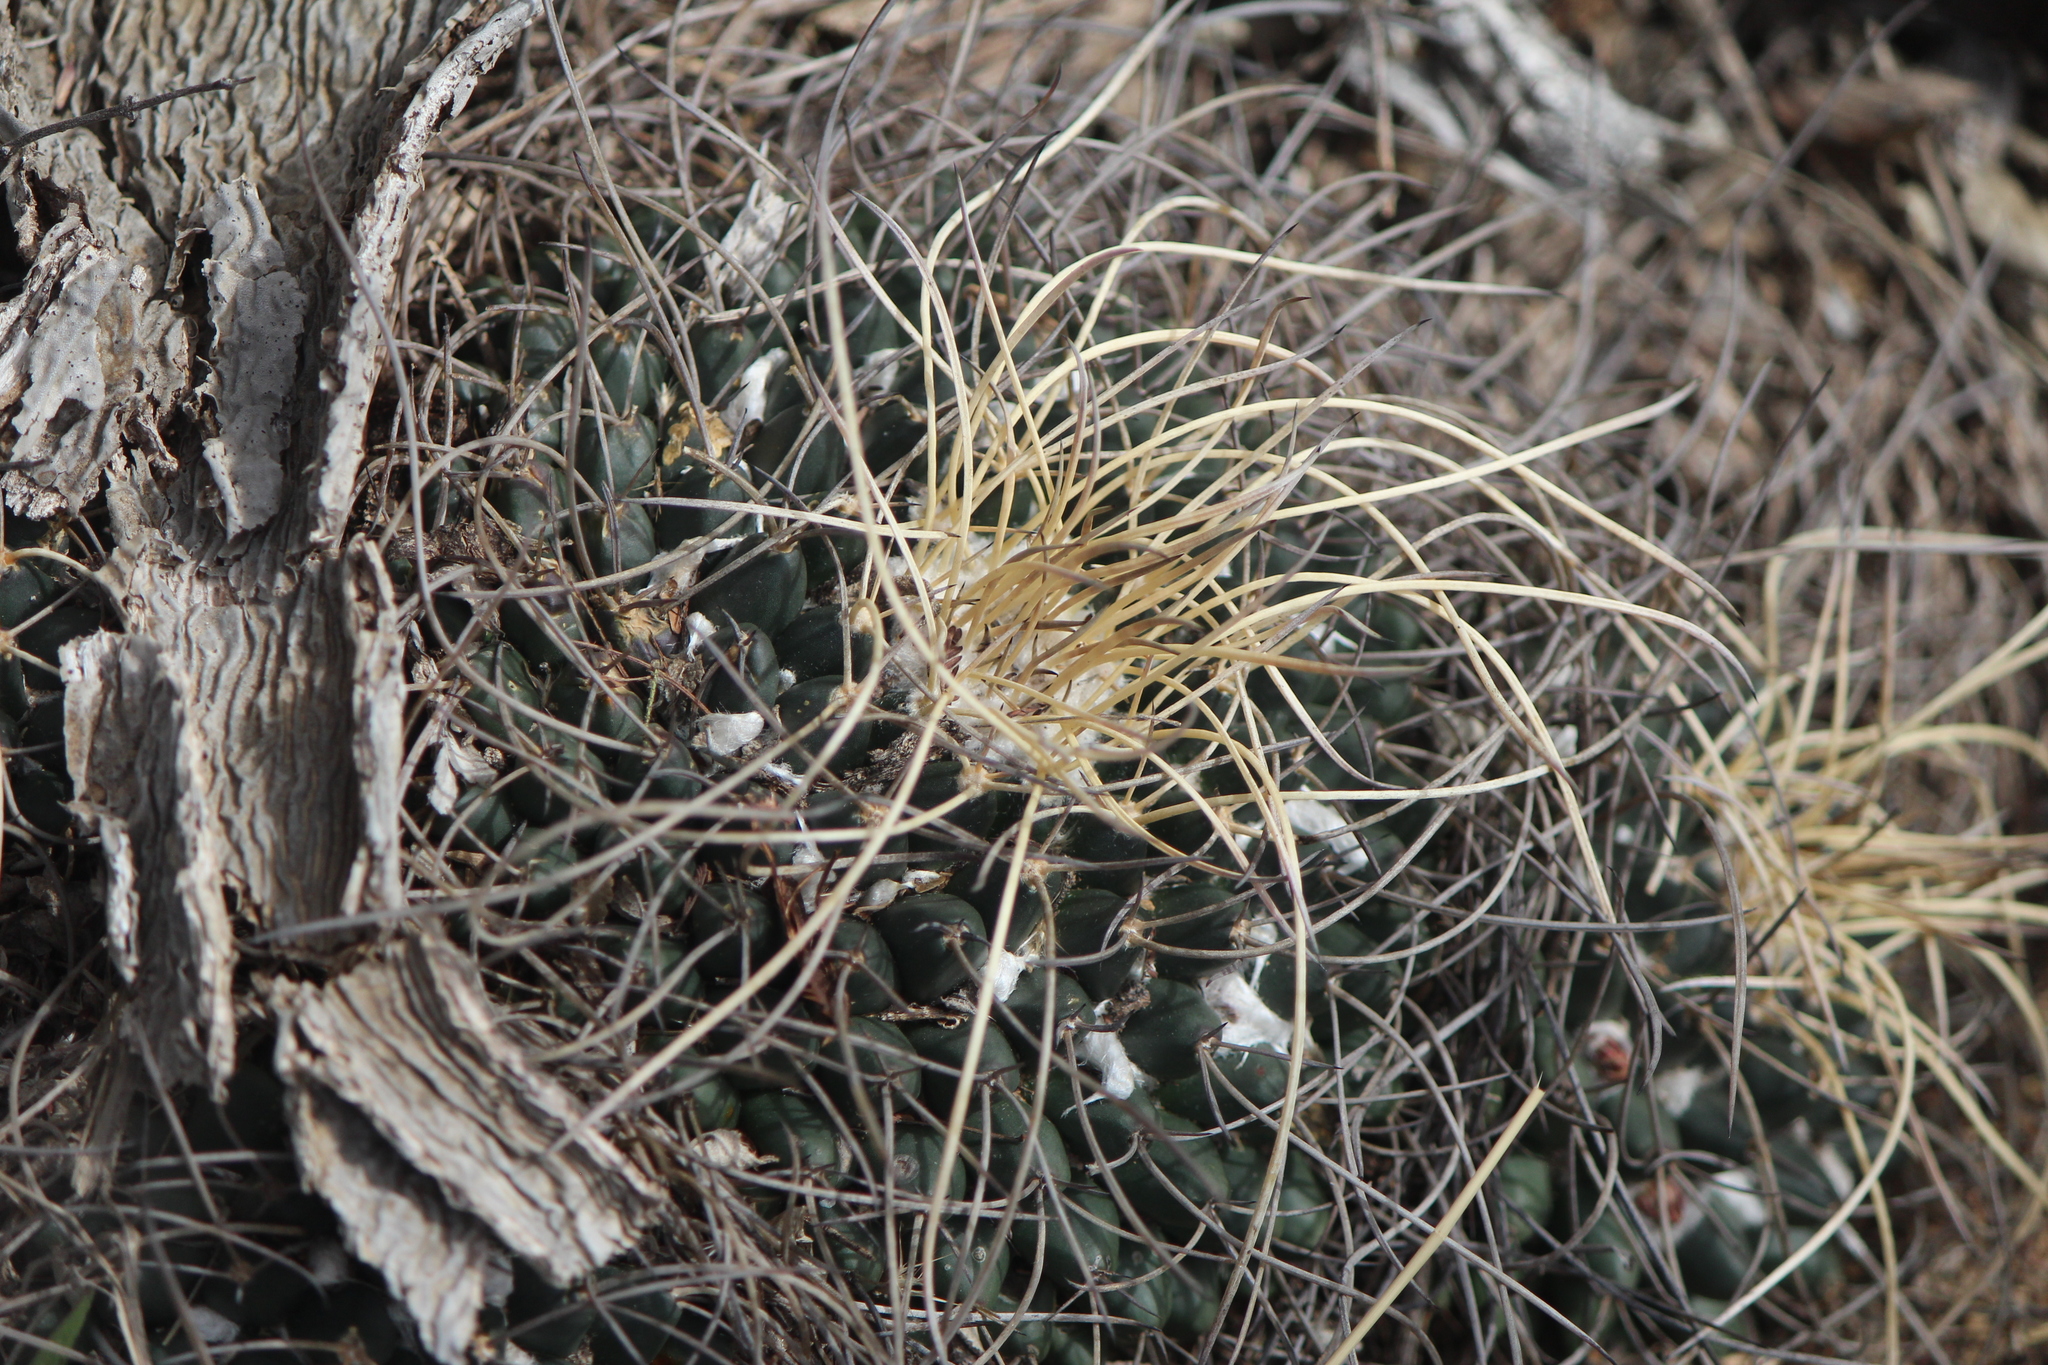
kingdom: Plantae
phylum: Tracheophyta
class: Magnoliopsida
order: Caryophyllales
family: Cactaceae
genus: Mammillaria
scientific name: Mammillaria magnimamma
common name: Mexican pincushion
